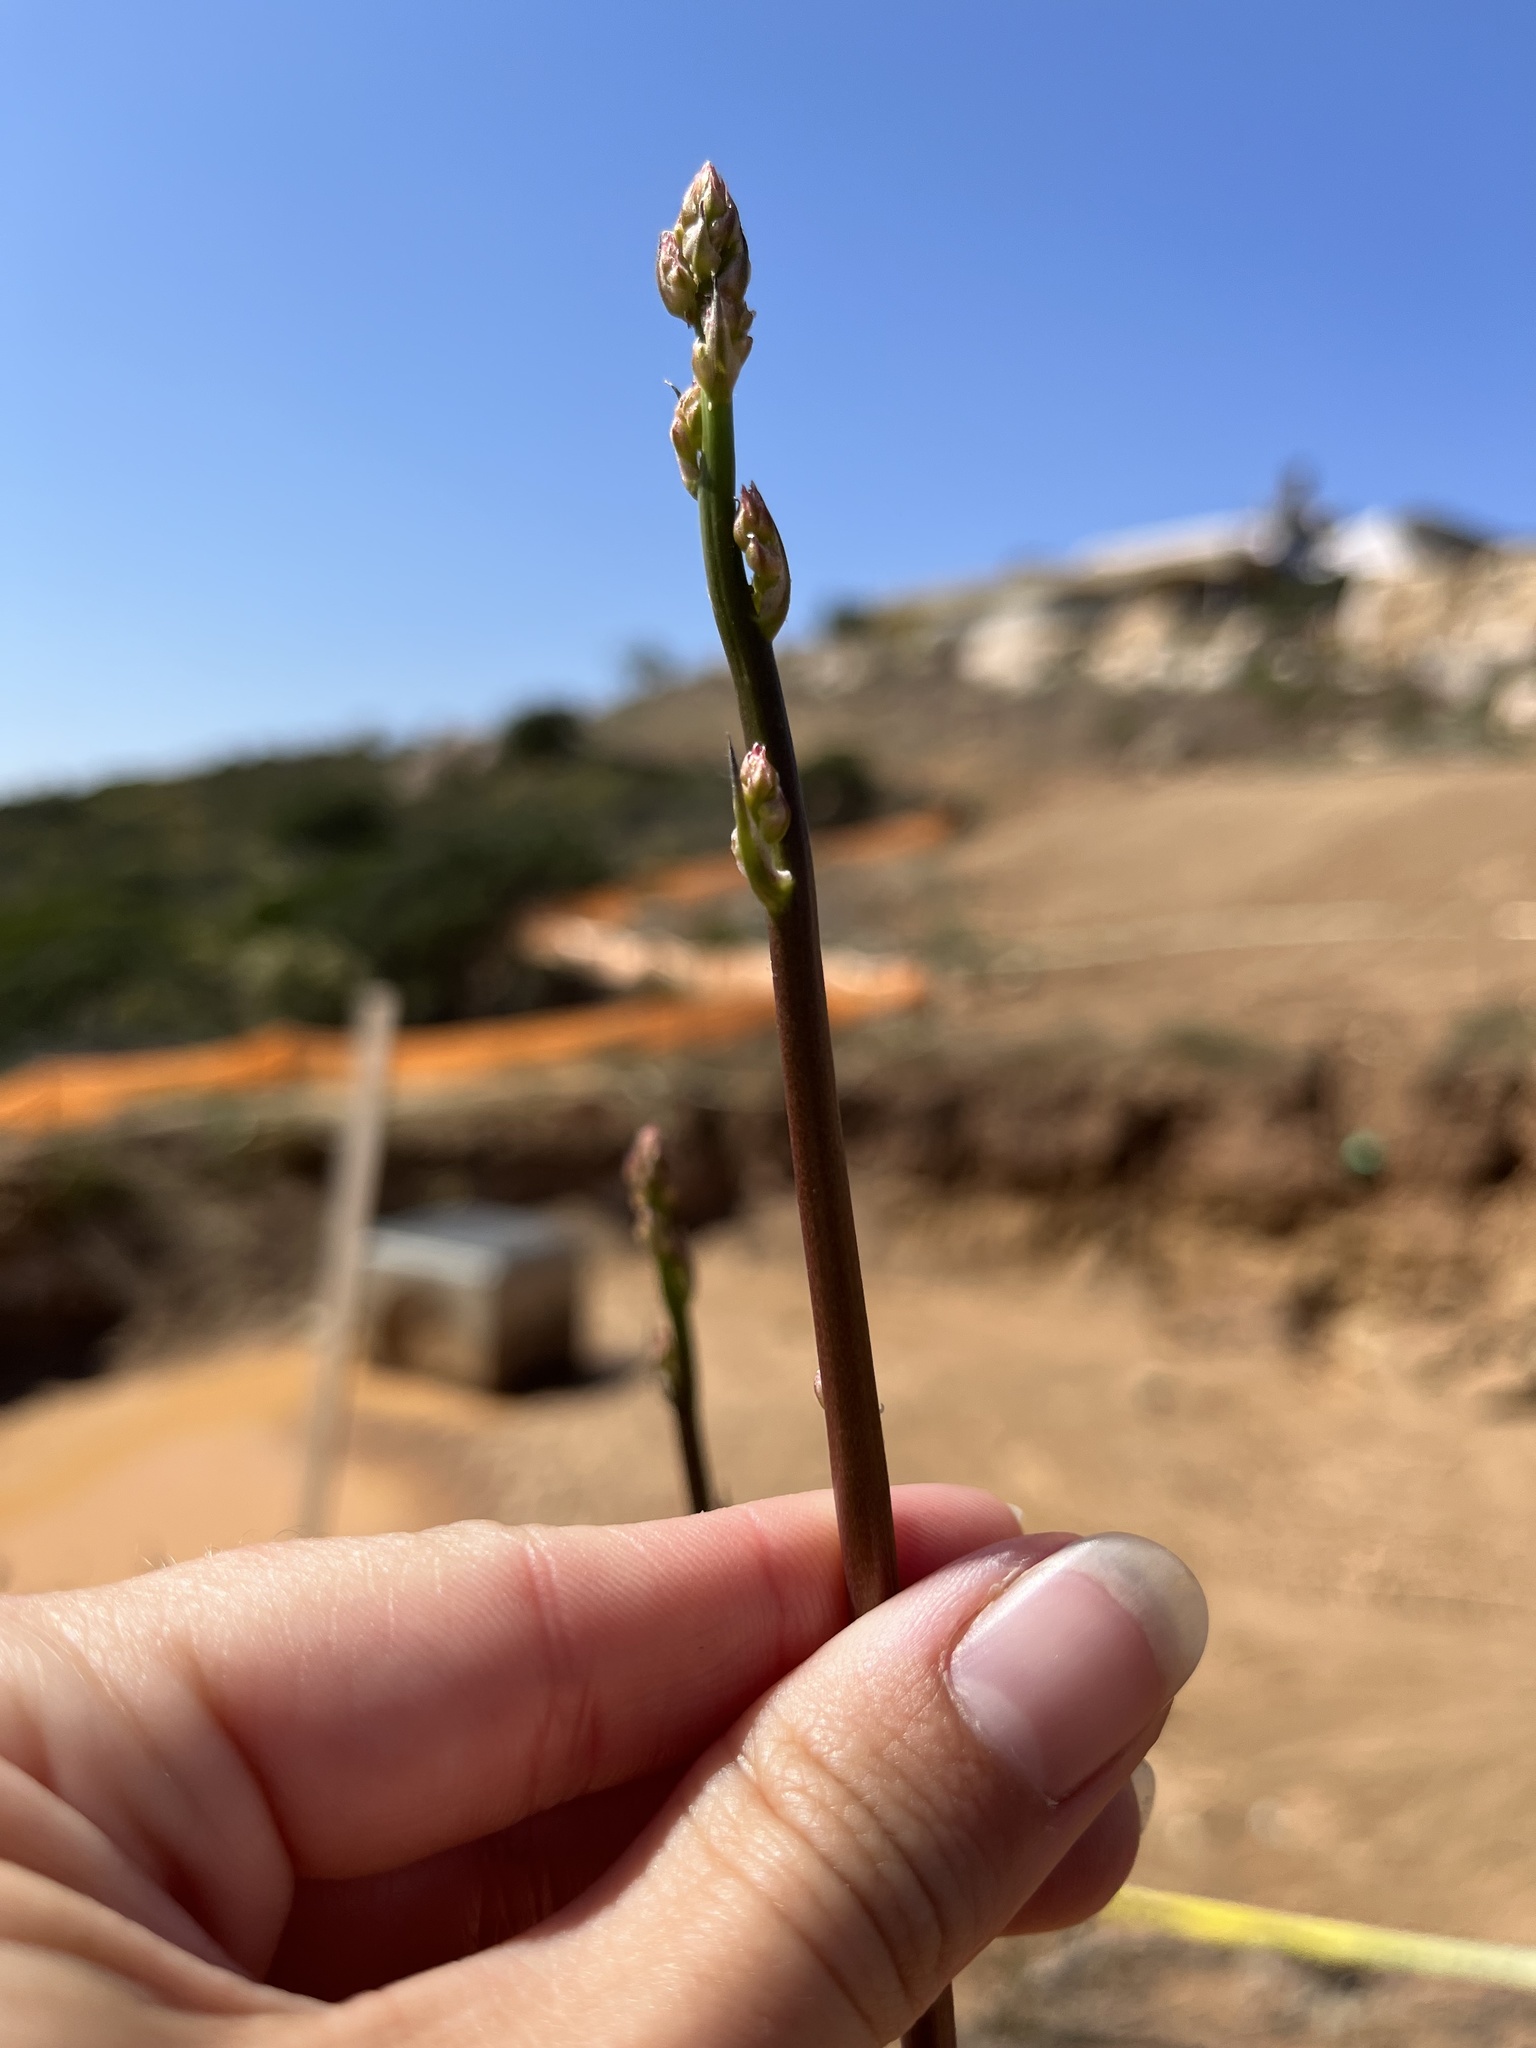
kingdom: Plantae
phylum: Tracheophyta
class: Liliopsida
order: Asparagales
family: Asparagaceae
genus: Hooveria
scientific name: Hooveria parviflora
